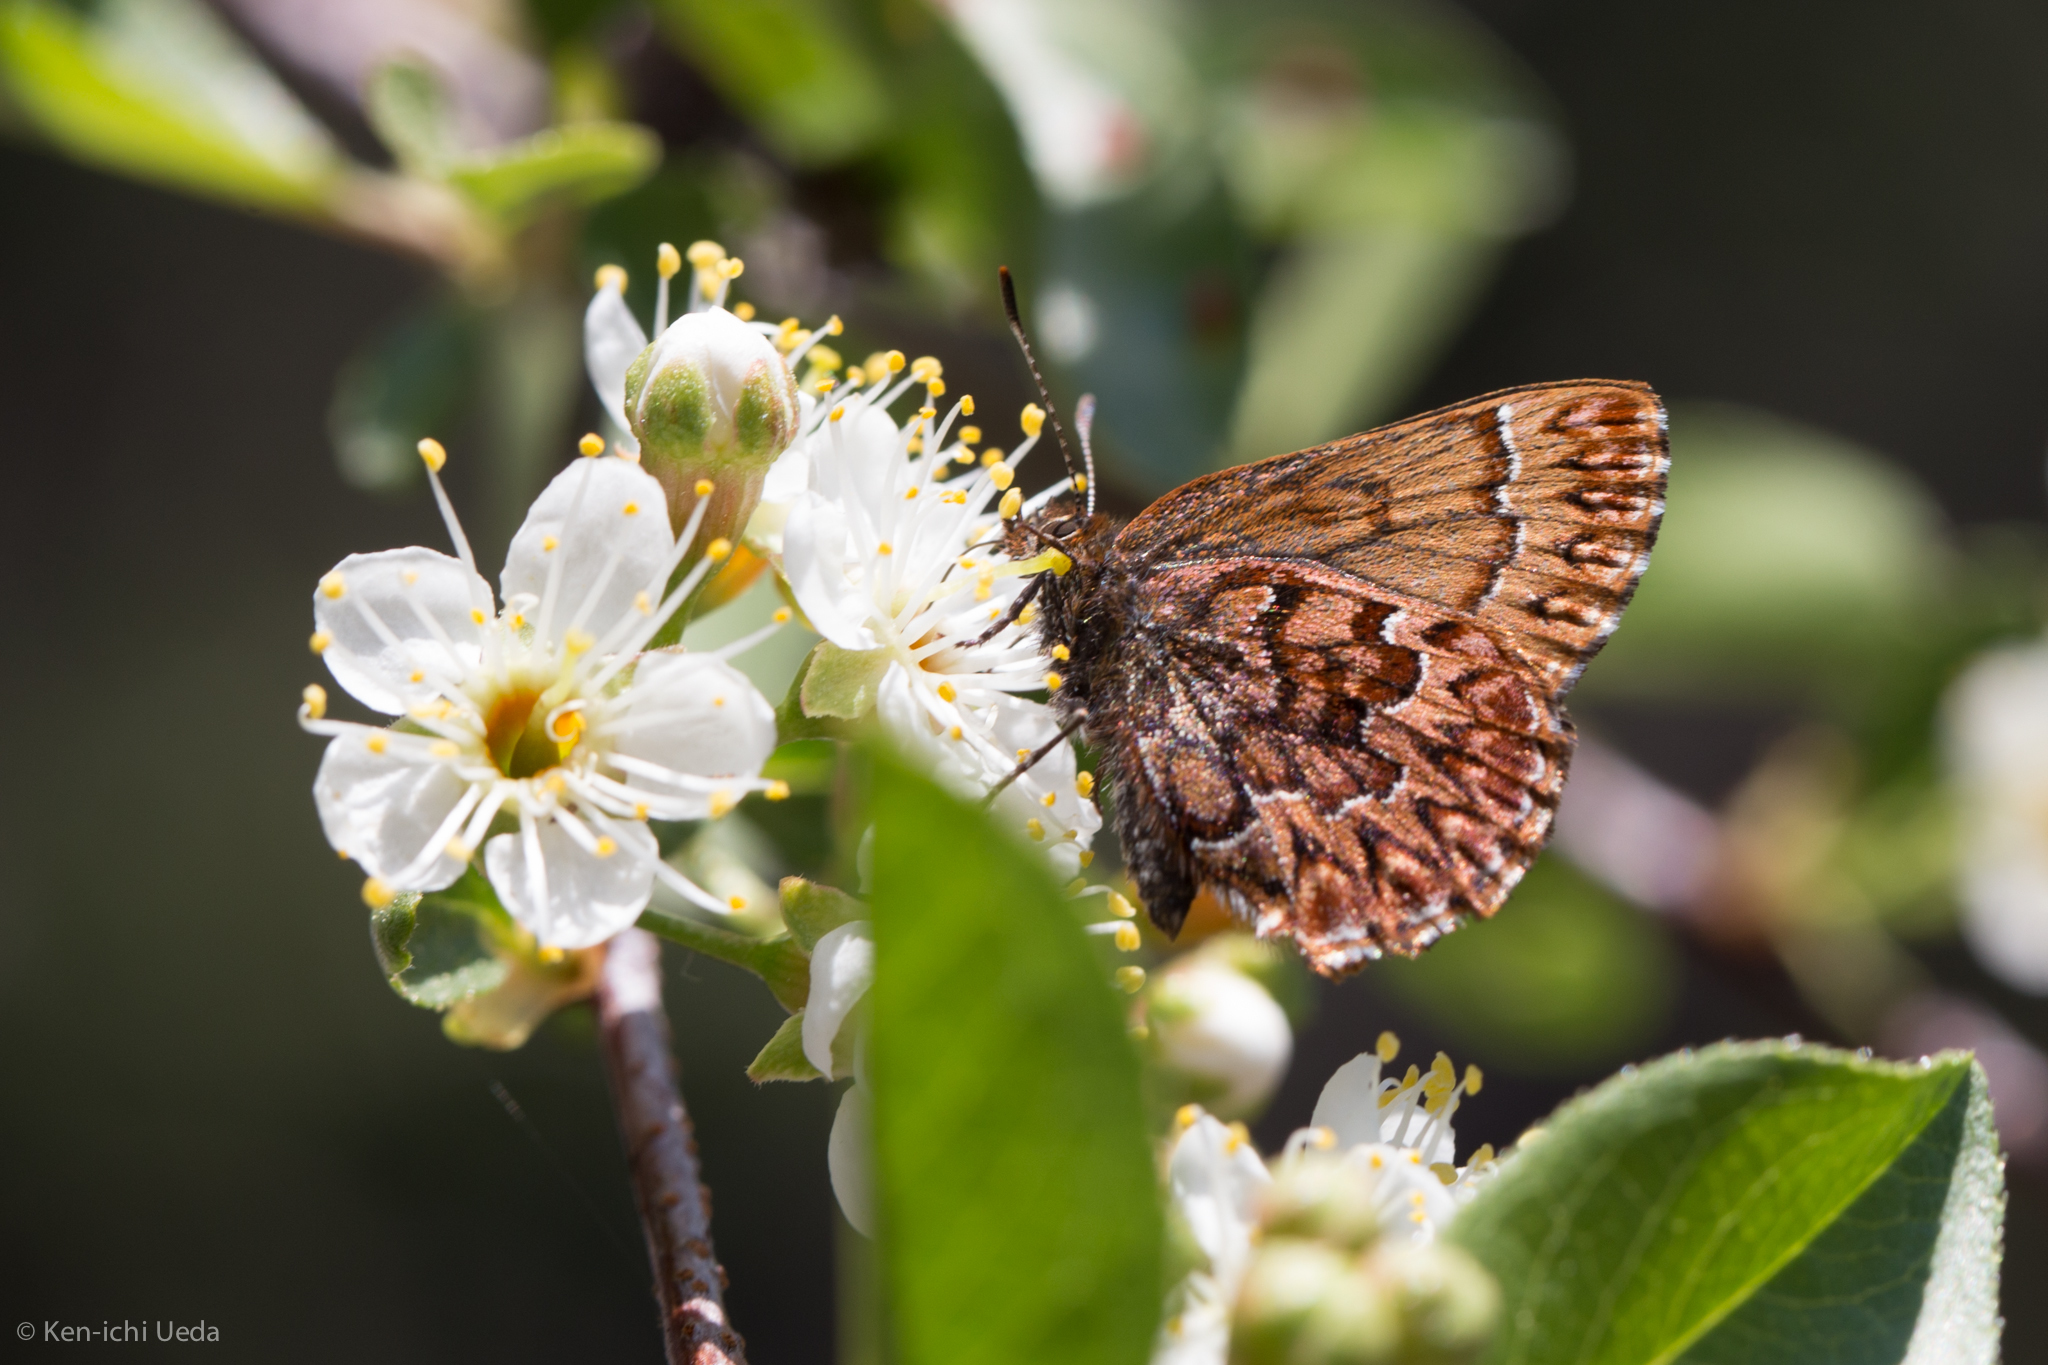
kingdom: Animalia
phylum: Arthropoda
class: Insecta
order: Lepidoptera
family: Lycaenidae
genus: Incisalia
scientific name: Incisalia eryphon
